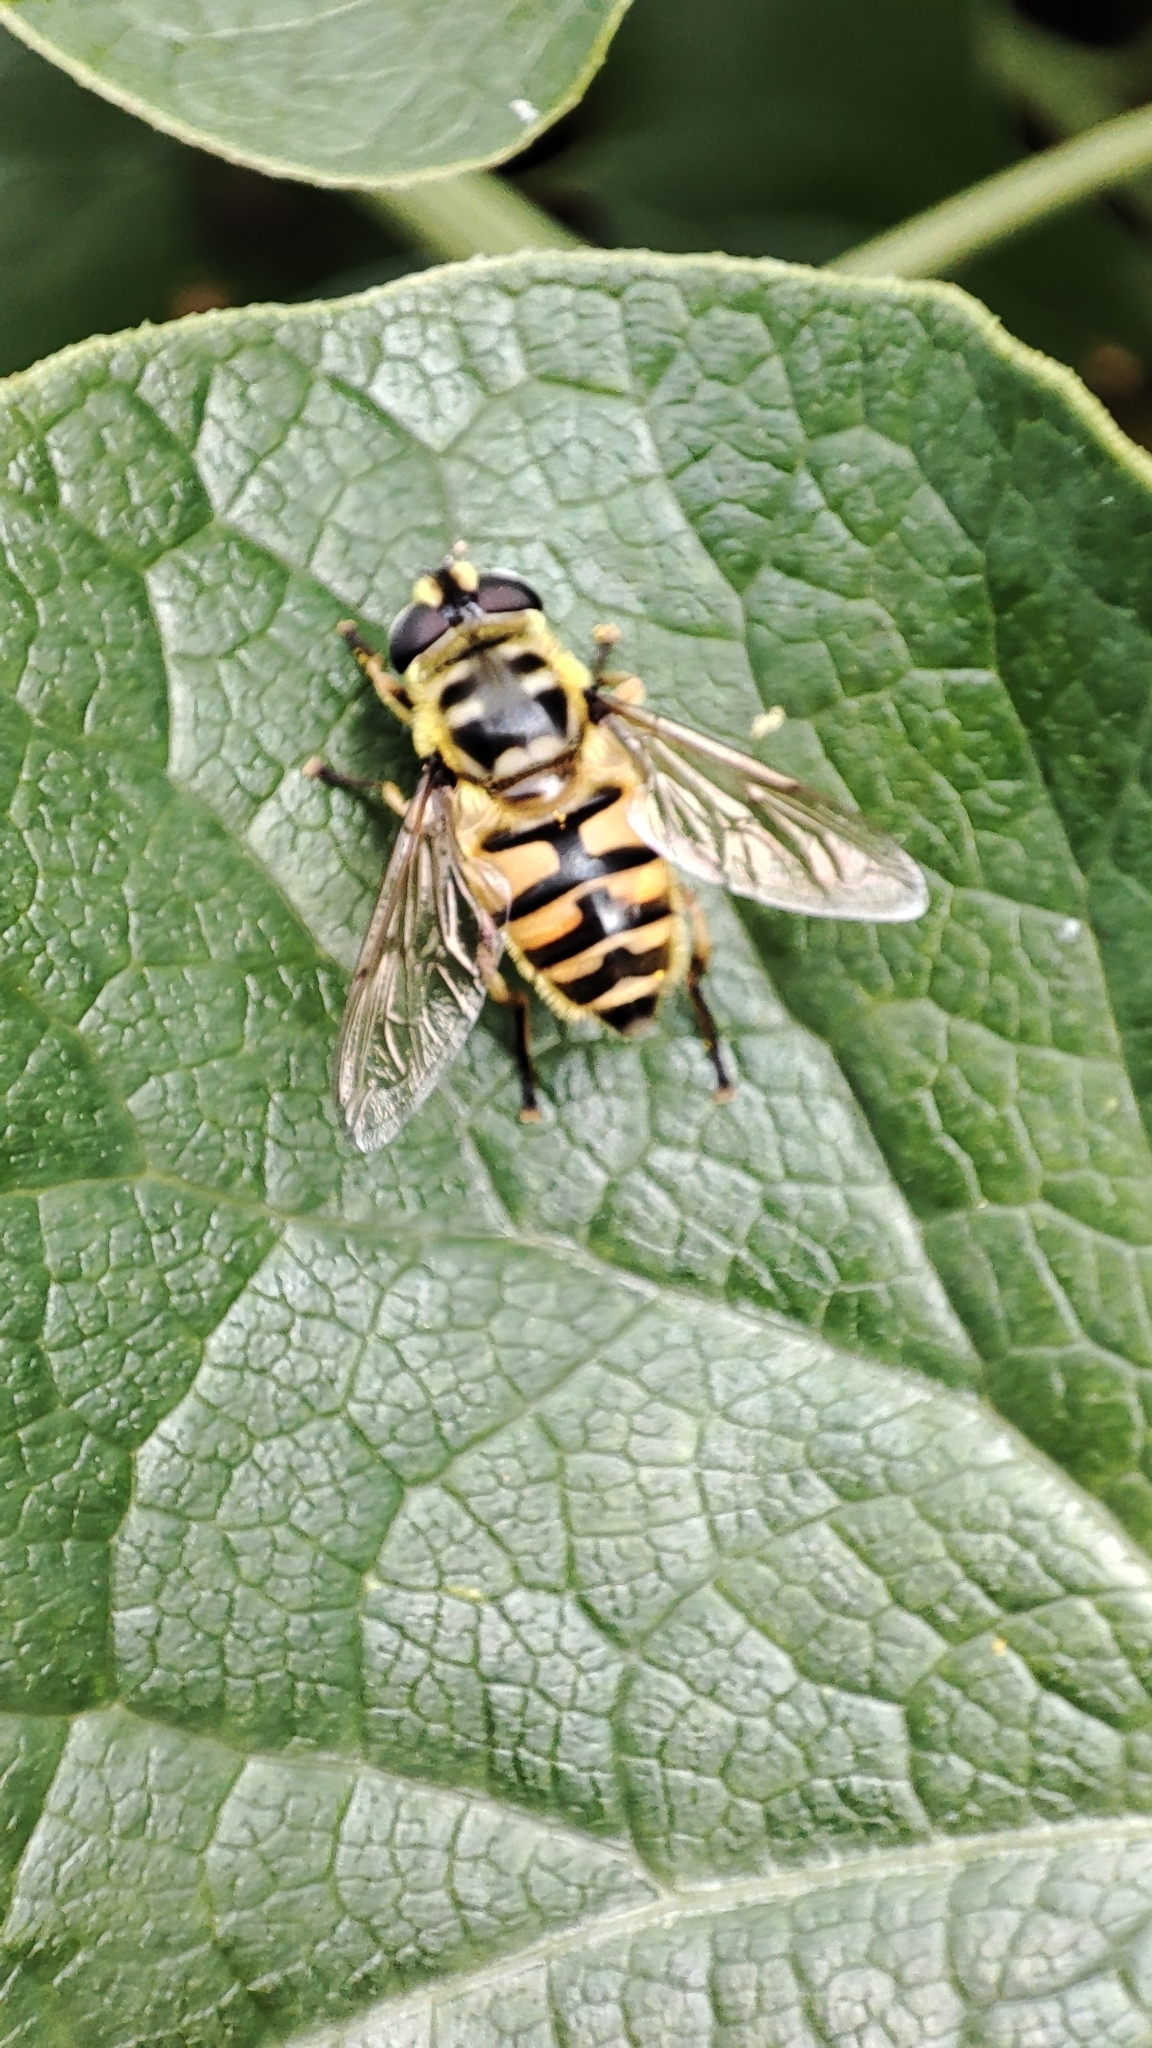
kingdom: Animalia
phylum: Arthropoda
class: Insecta
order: Diptera
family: Syrphidae
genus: Myathropa
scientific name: Myathropa florea
